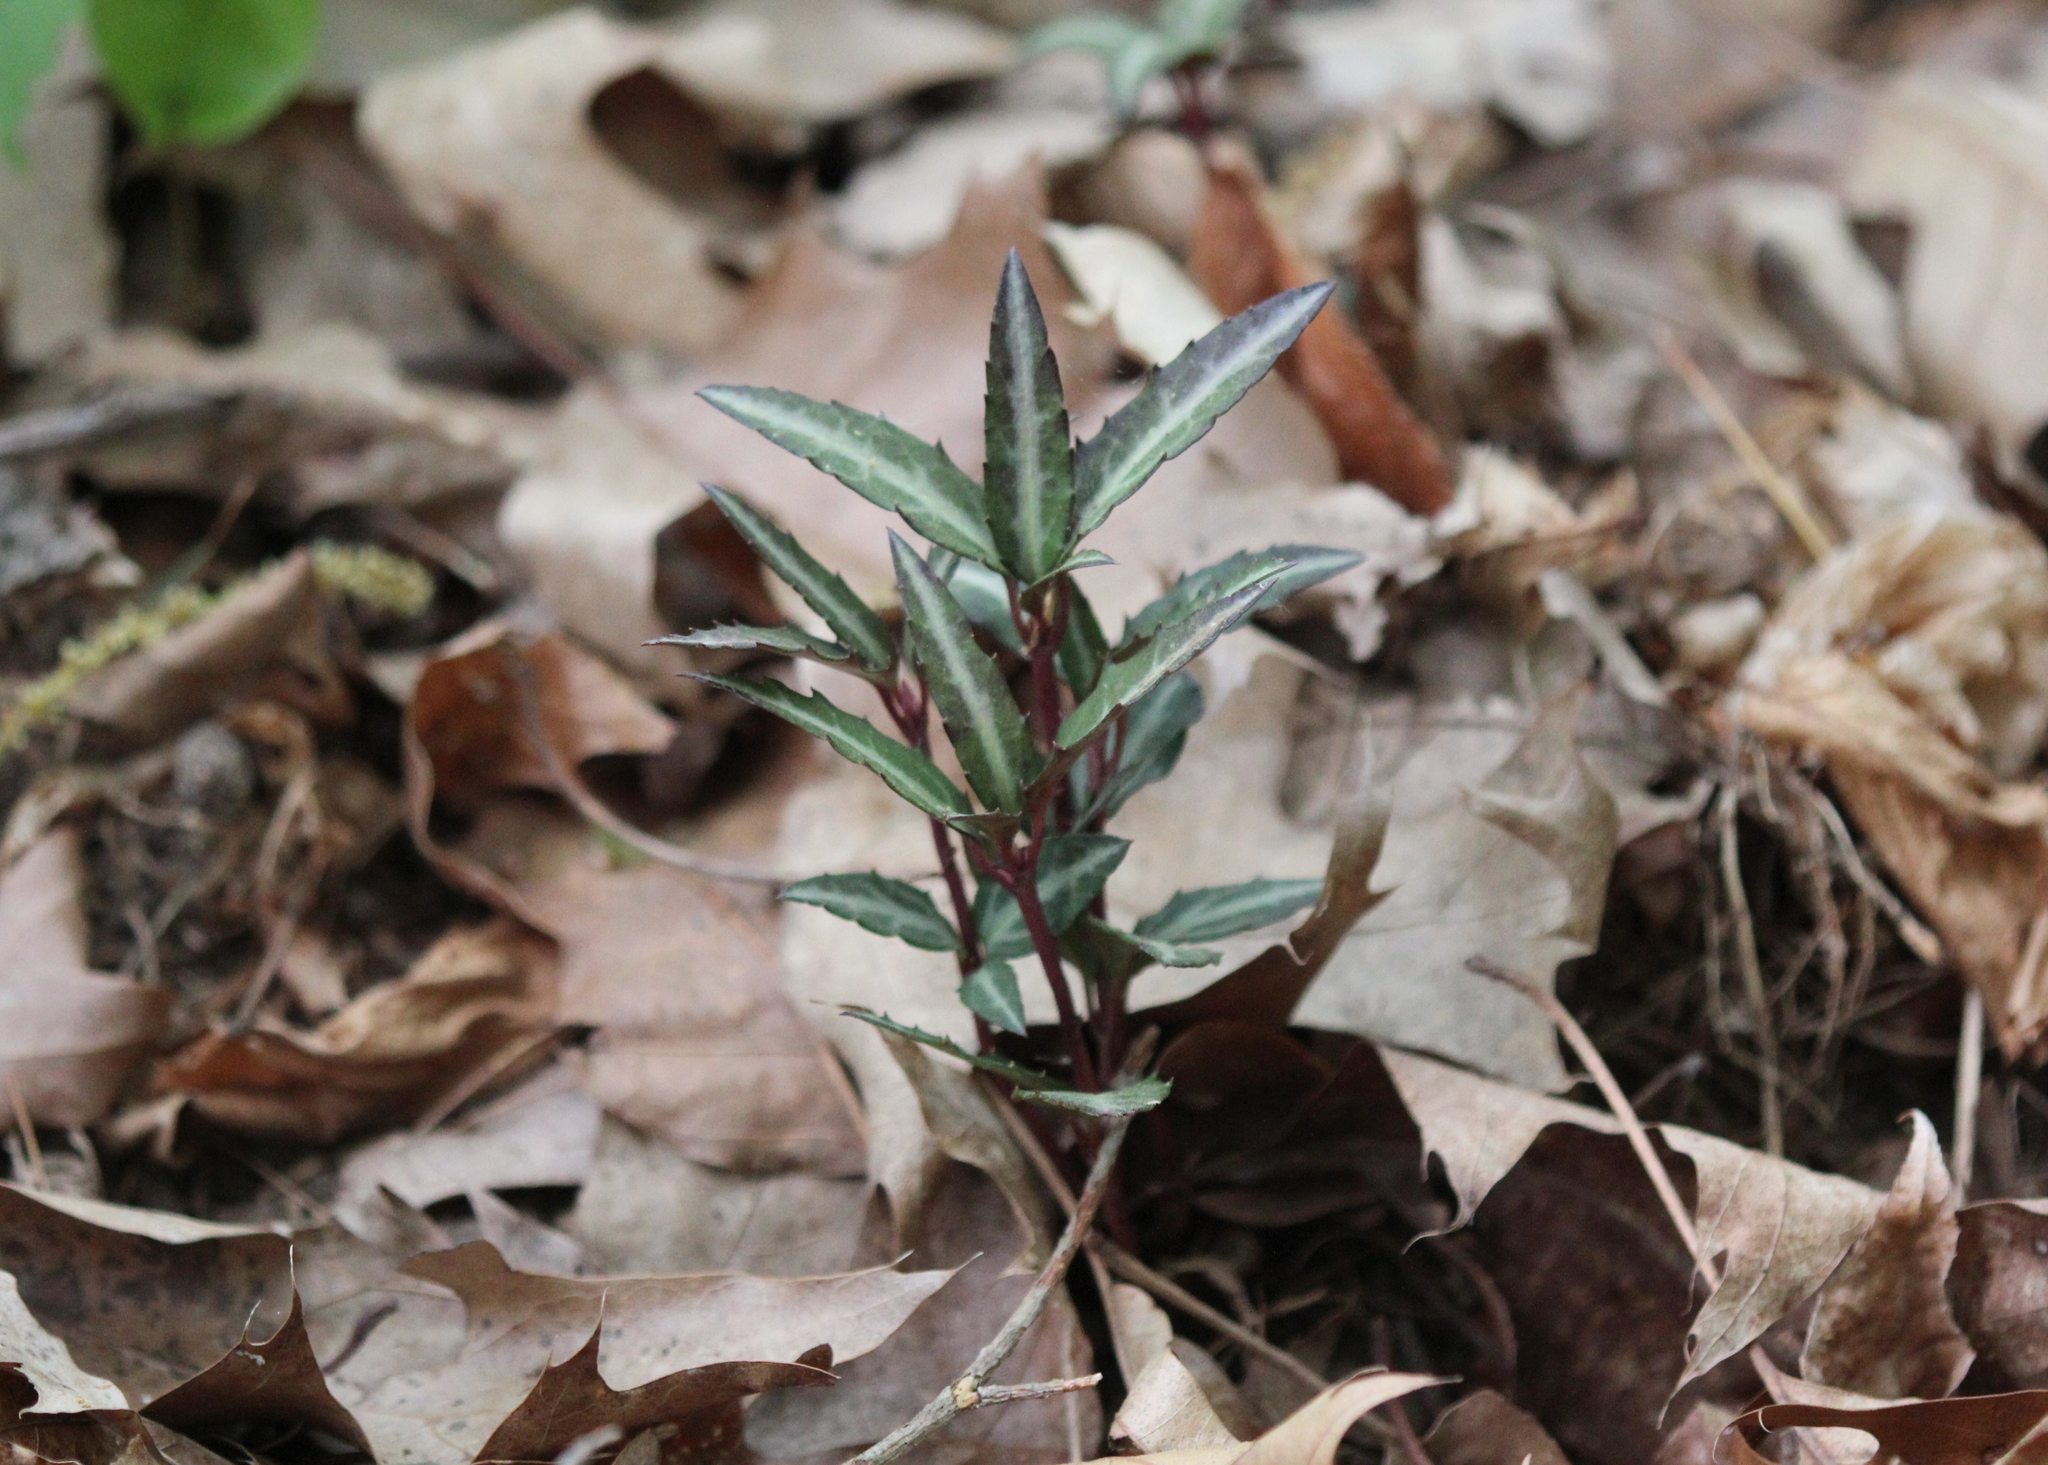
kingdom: Plantae
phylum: Tracheophyta
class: Magnoliopsida
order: Ericales
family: Ericaceae
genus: Chimaphila
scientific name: Chimaphila maculata
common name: Spotted pipsissewa
